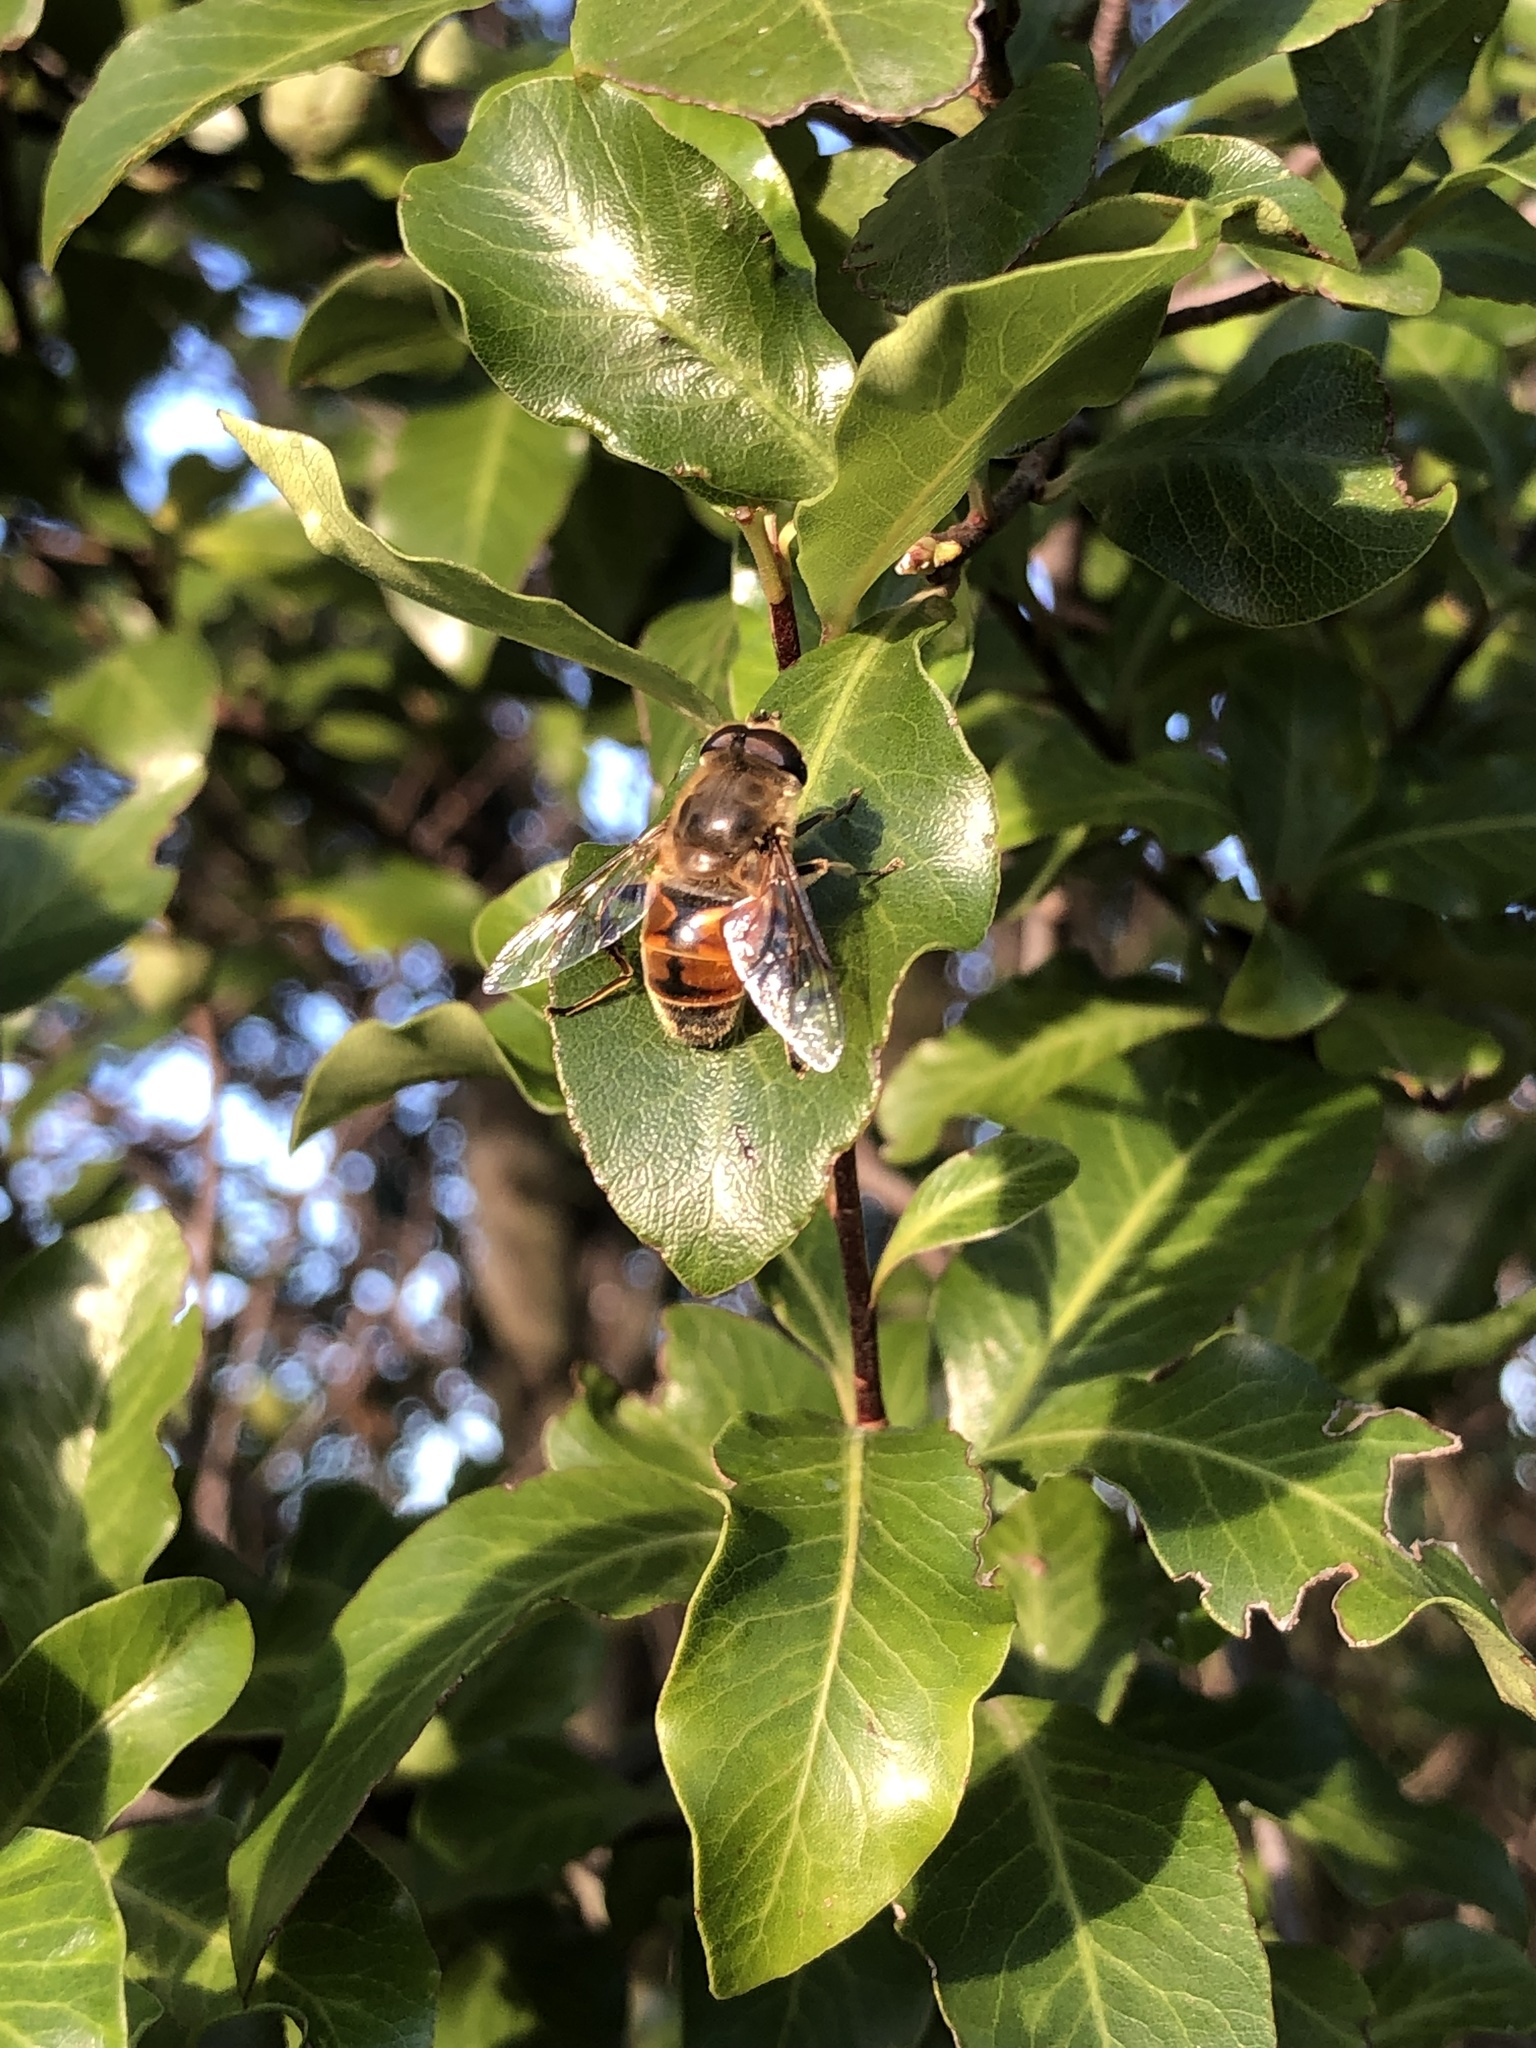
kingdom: Animalia
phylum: Arthropoda
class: Insecta
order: Diptera
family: Syrphidae
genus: Eristalis
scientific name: Eristalis tenax
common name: Drone fly
